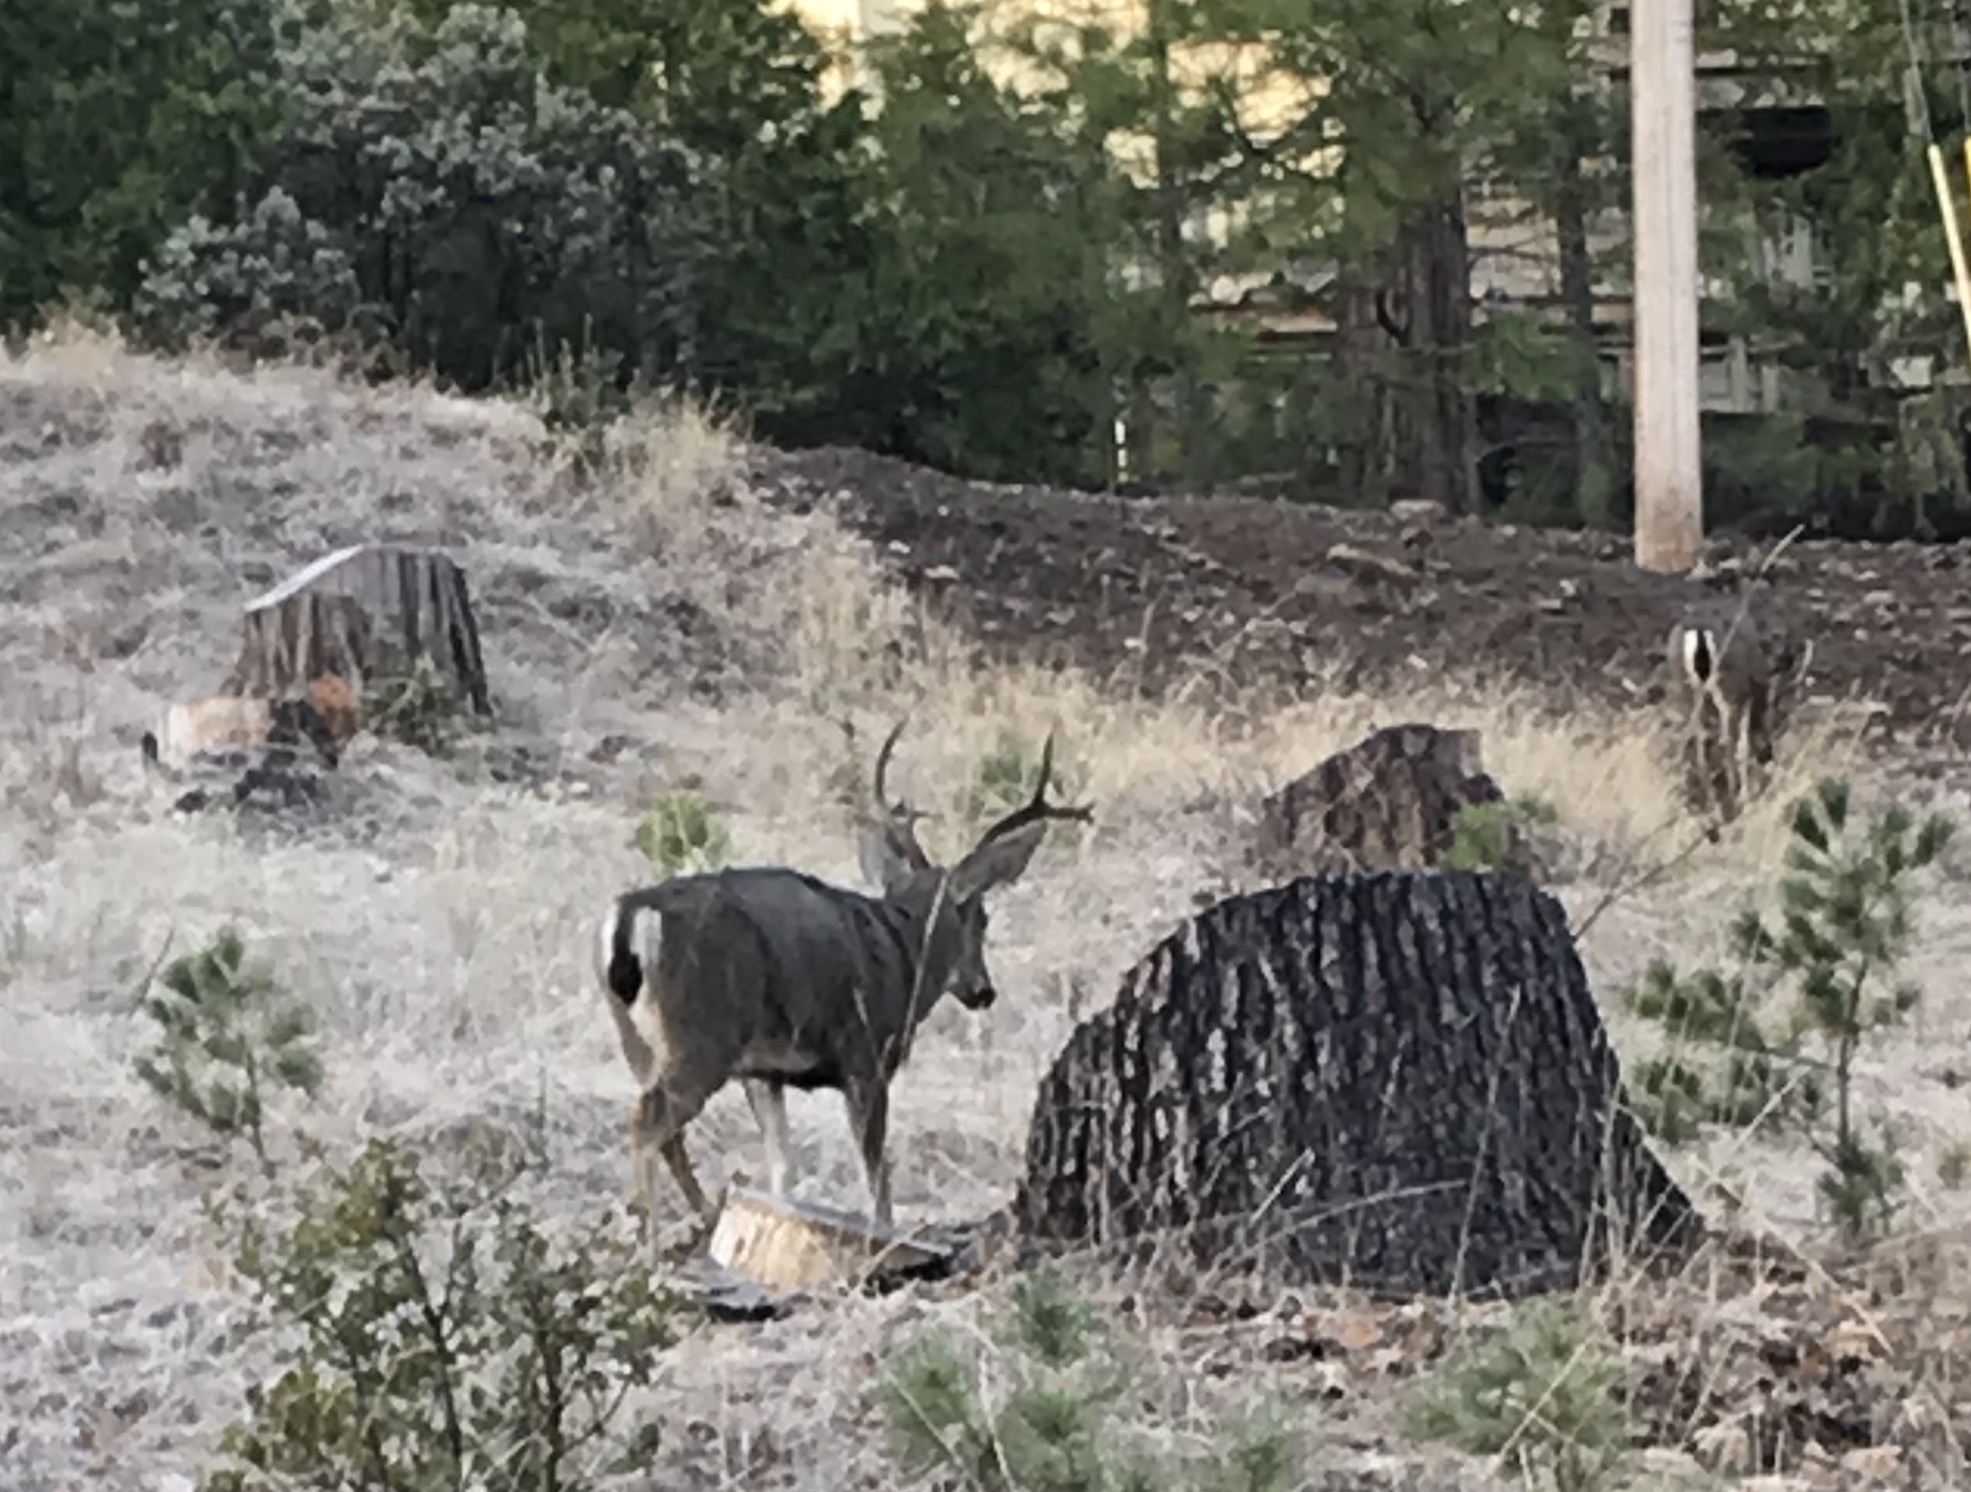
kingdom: Animalia
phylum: Chordata
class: Mammalia
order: Artiodactyla
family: Cervidae
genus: Odocoileus
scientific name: Odocoileus hemionus
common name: Mule deer
